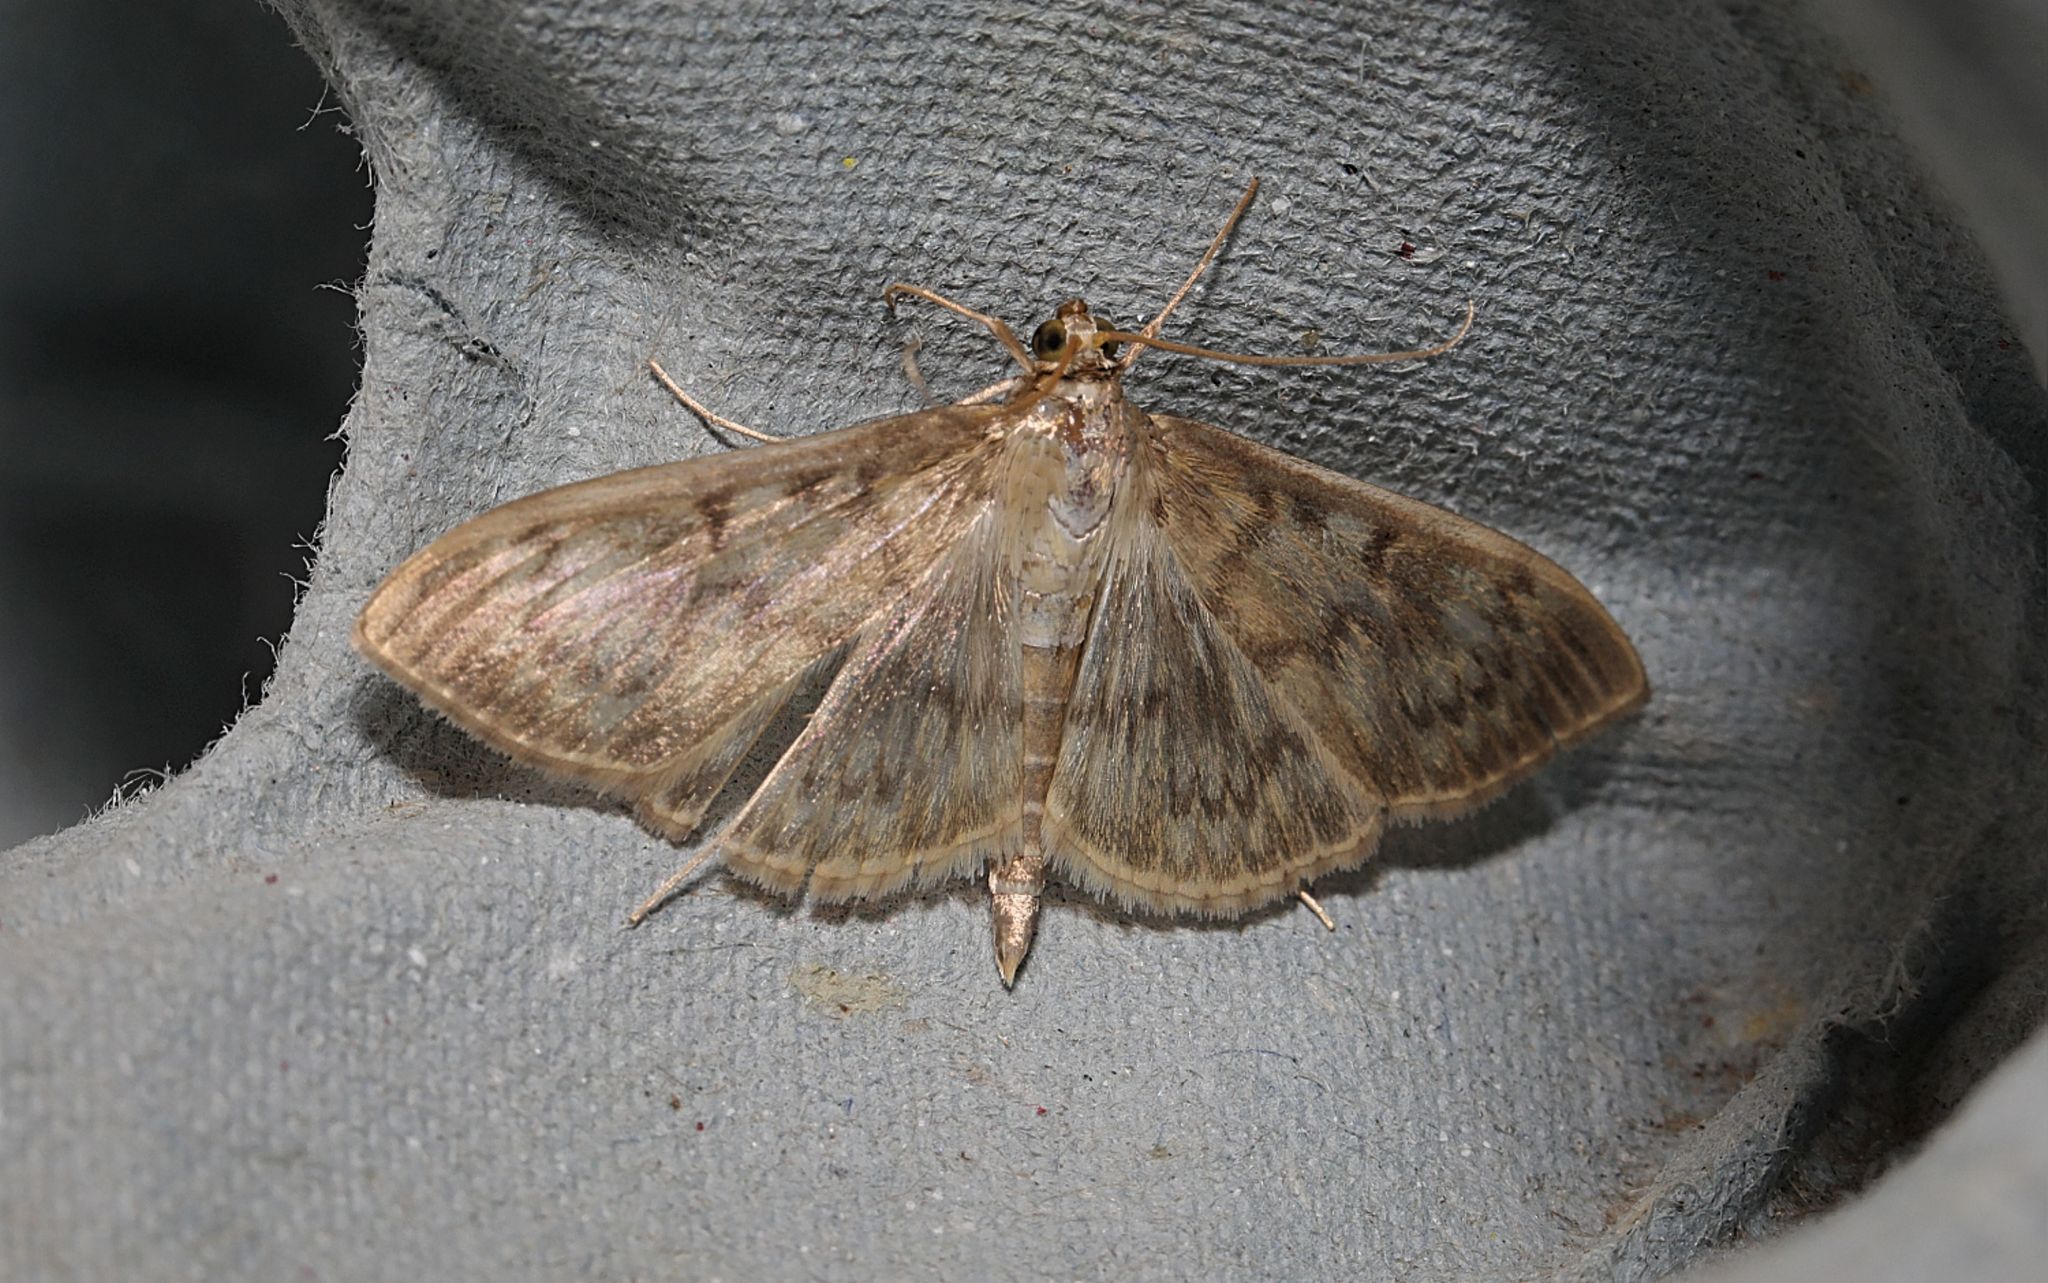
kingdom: Animalia
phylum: Arthropoda
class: Insecta
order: Lepidoptera
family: Crambidae
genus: Patania
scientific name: Patania ruralis
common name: Mother of pearl
